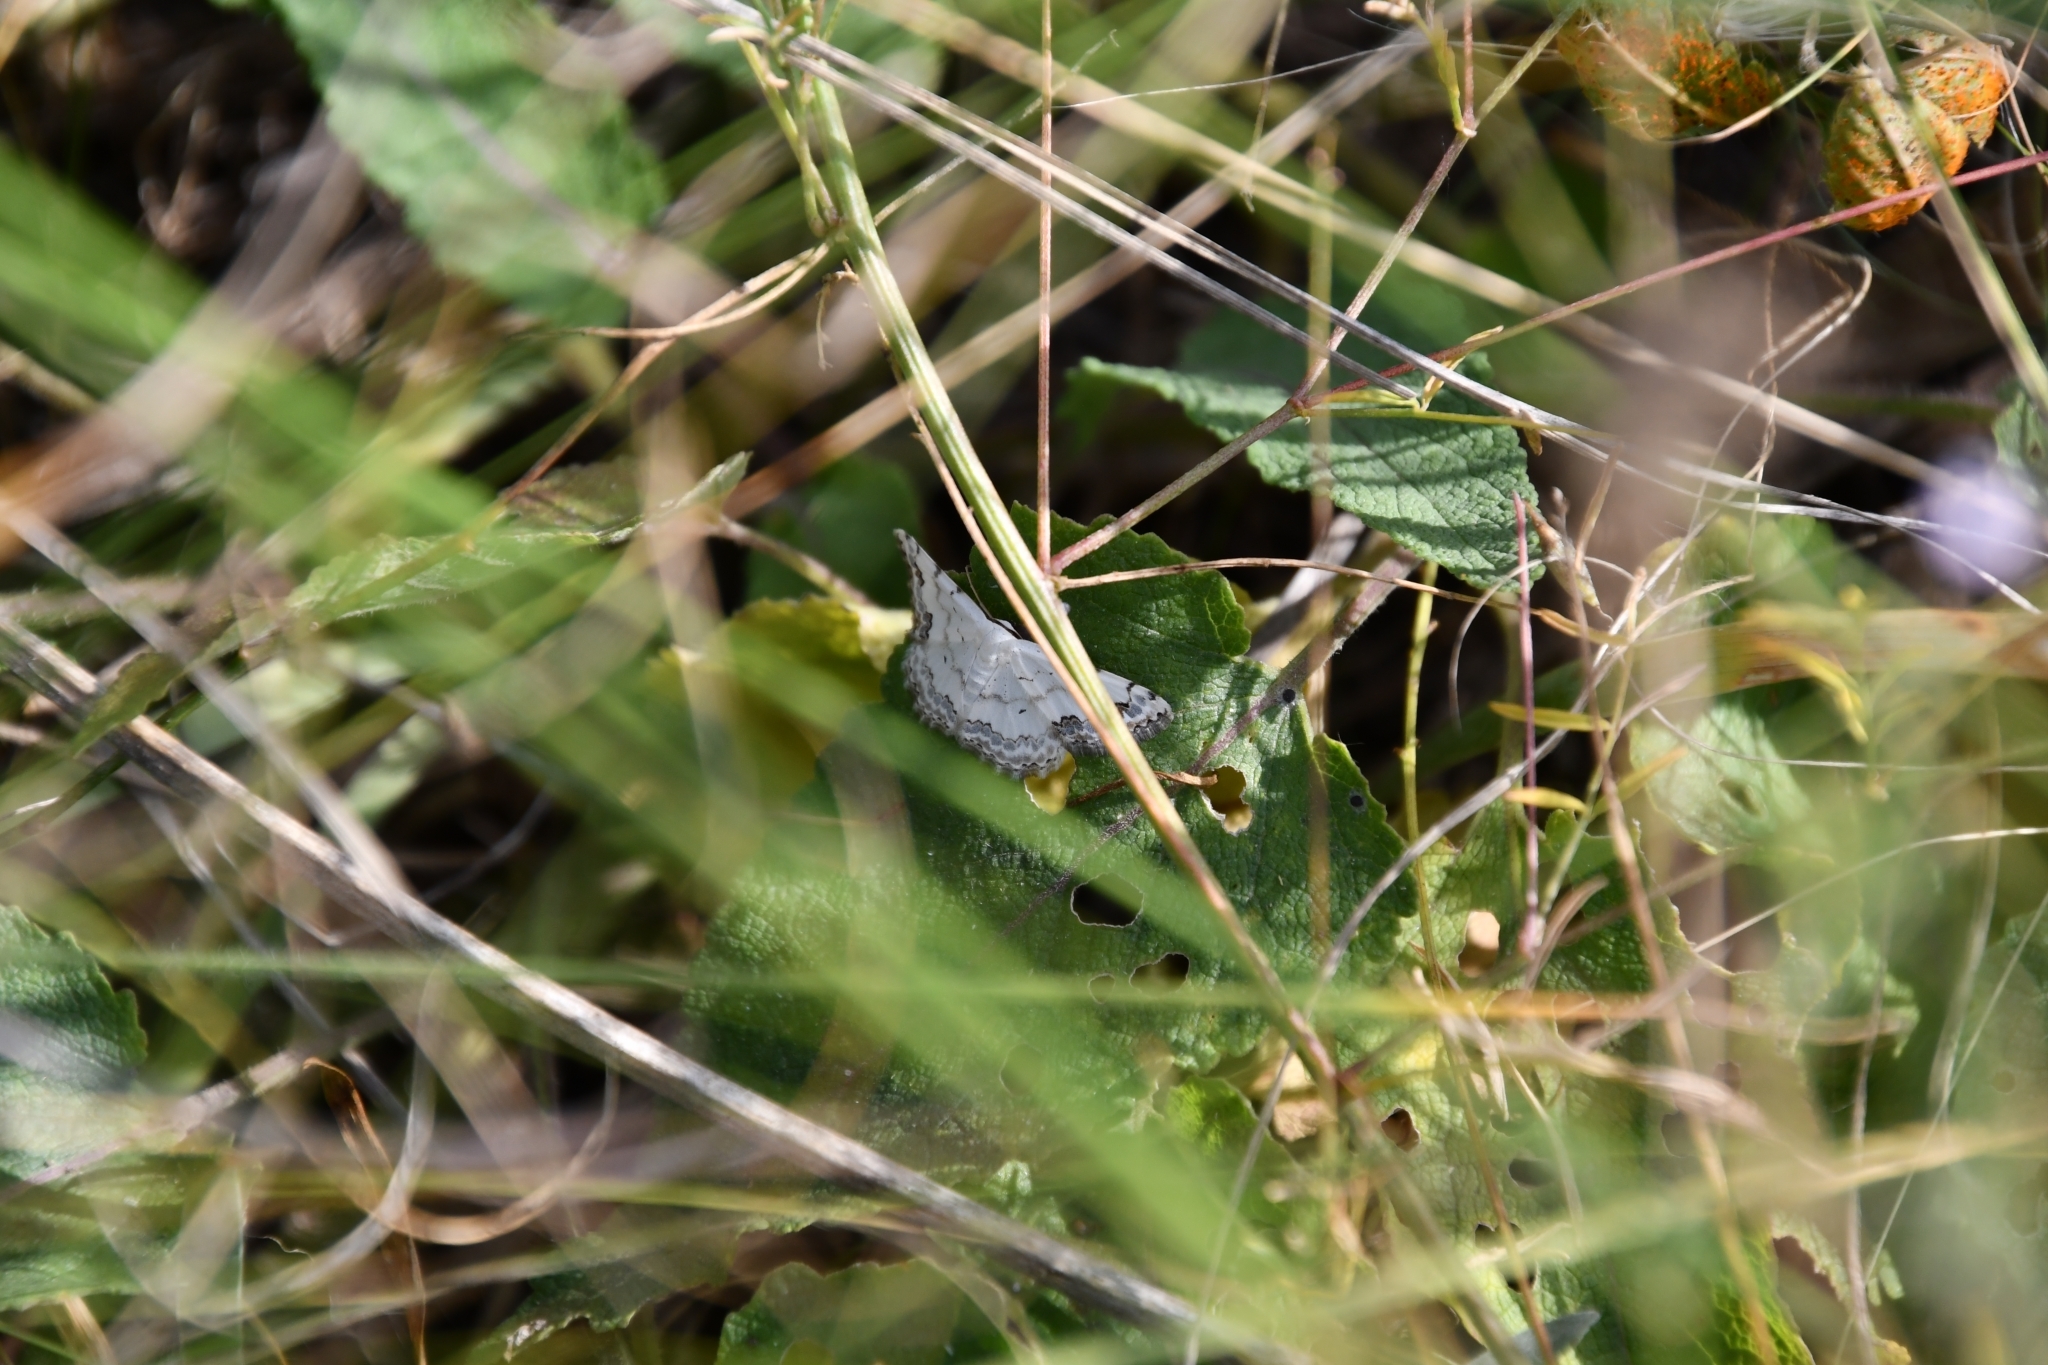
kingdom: Animalia
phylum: Arthropoda
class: Insecta
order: Lepidoptera
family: Geometridae
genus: Scopula
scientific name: Scopula decorata
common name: Middle lace border
